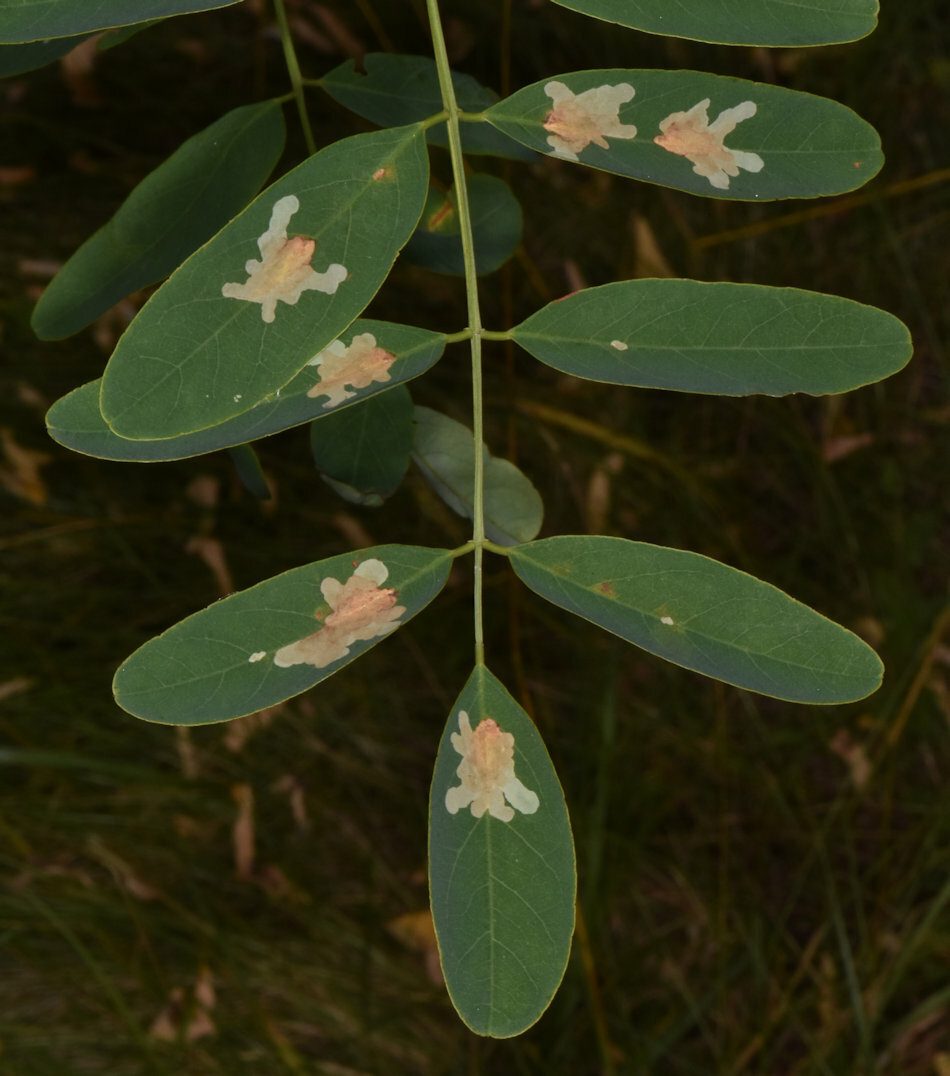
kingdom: Animalia
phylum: Arthropoda
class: Insecta
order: Lepidoptera
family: Gracillariidae
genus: Parectopa
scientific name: Parectopa robiniella
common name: Locust digitate leafminer
